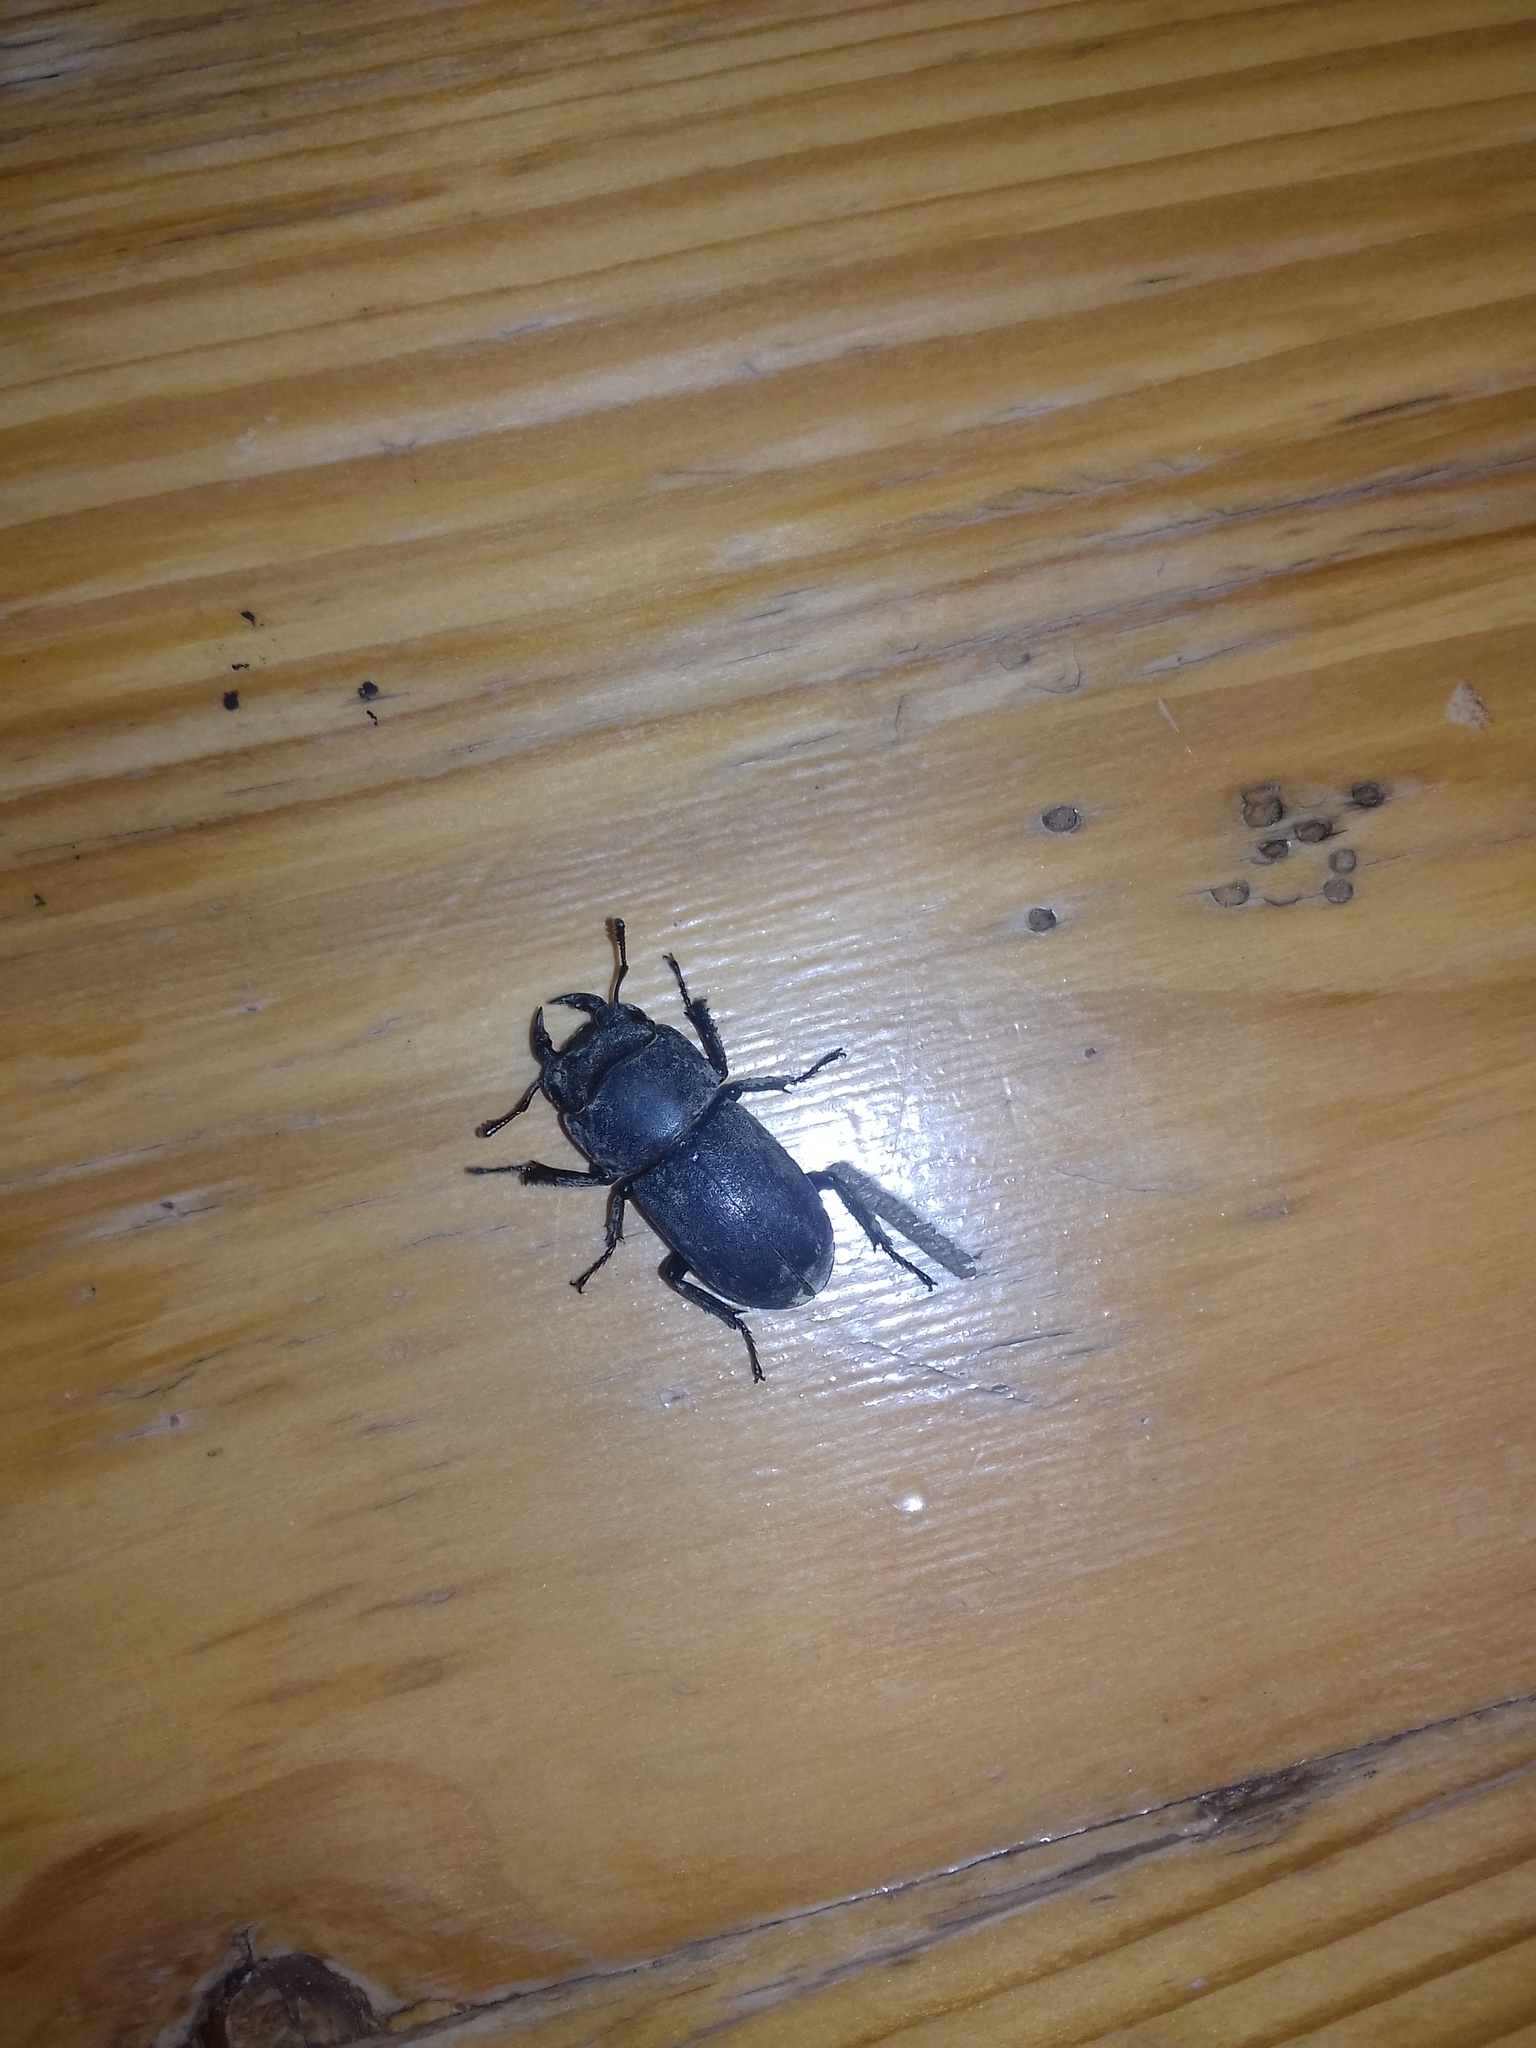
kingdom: Animalia
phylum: Arthropoda
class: Insecta
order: Coleoptera
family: Lucanidae
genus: Dorcus
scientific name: Dorcus parallelipipedus
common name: Lesser stag beetle
